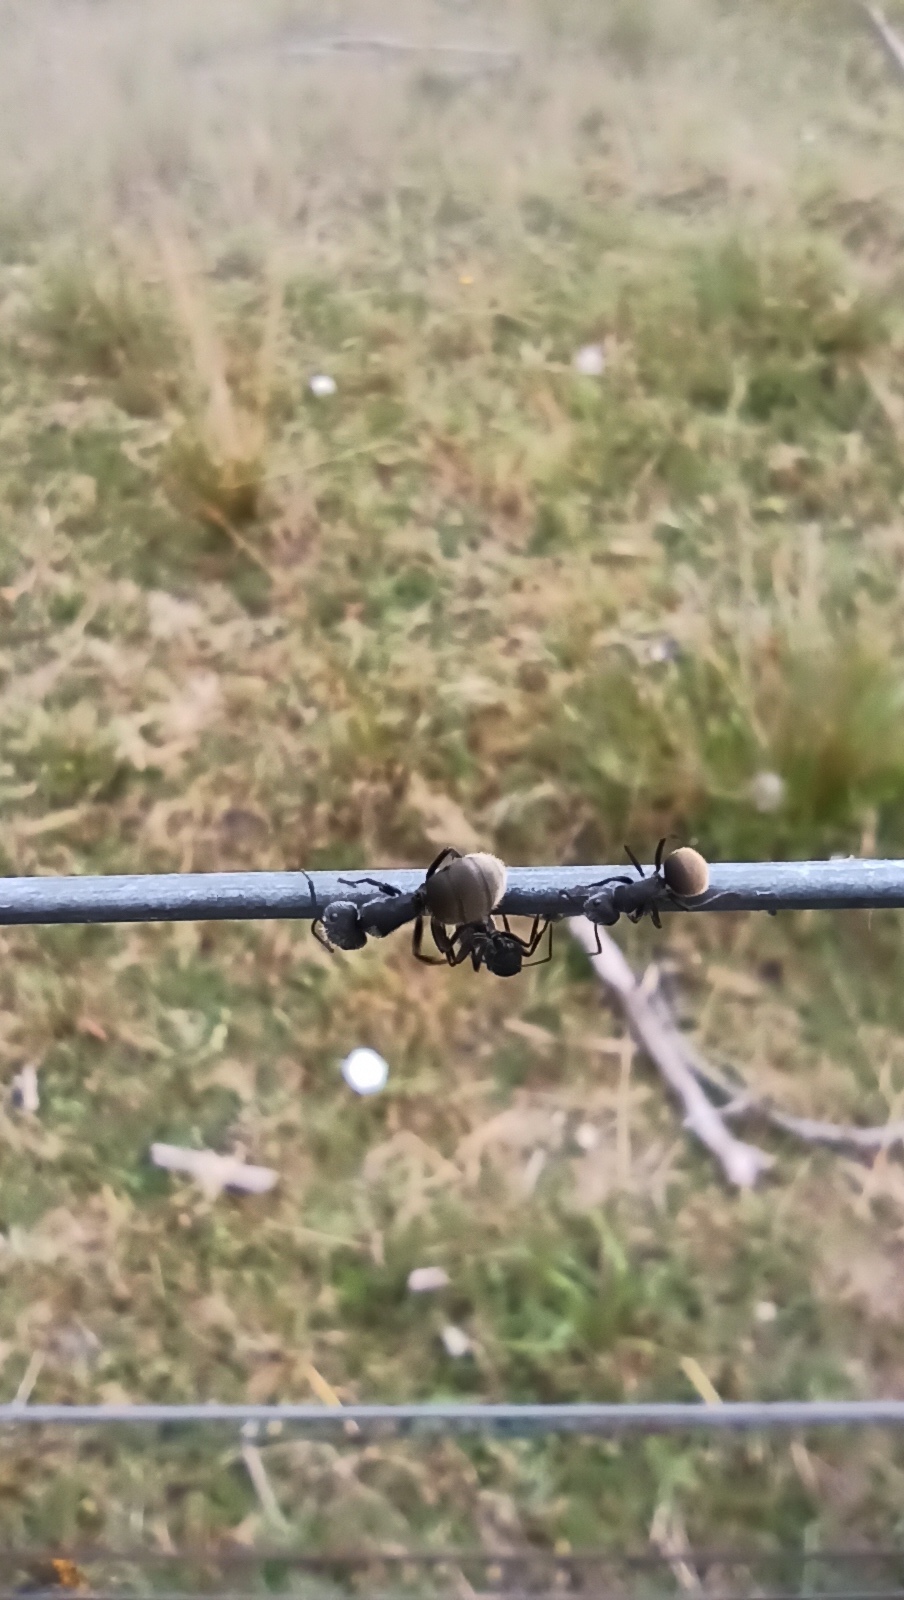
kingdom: Animalia
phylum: Arthropoda
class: Insecta
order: Hymenoptera
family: Formicidae
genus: Camponotus
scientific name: Camponotus mus
